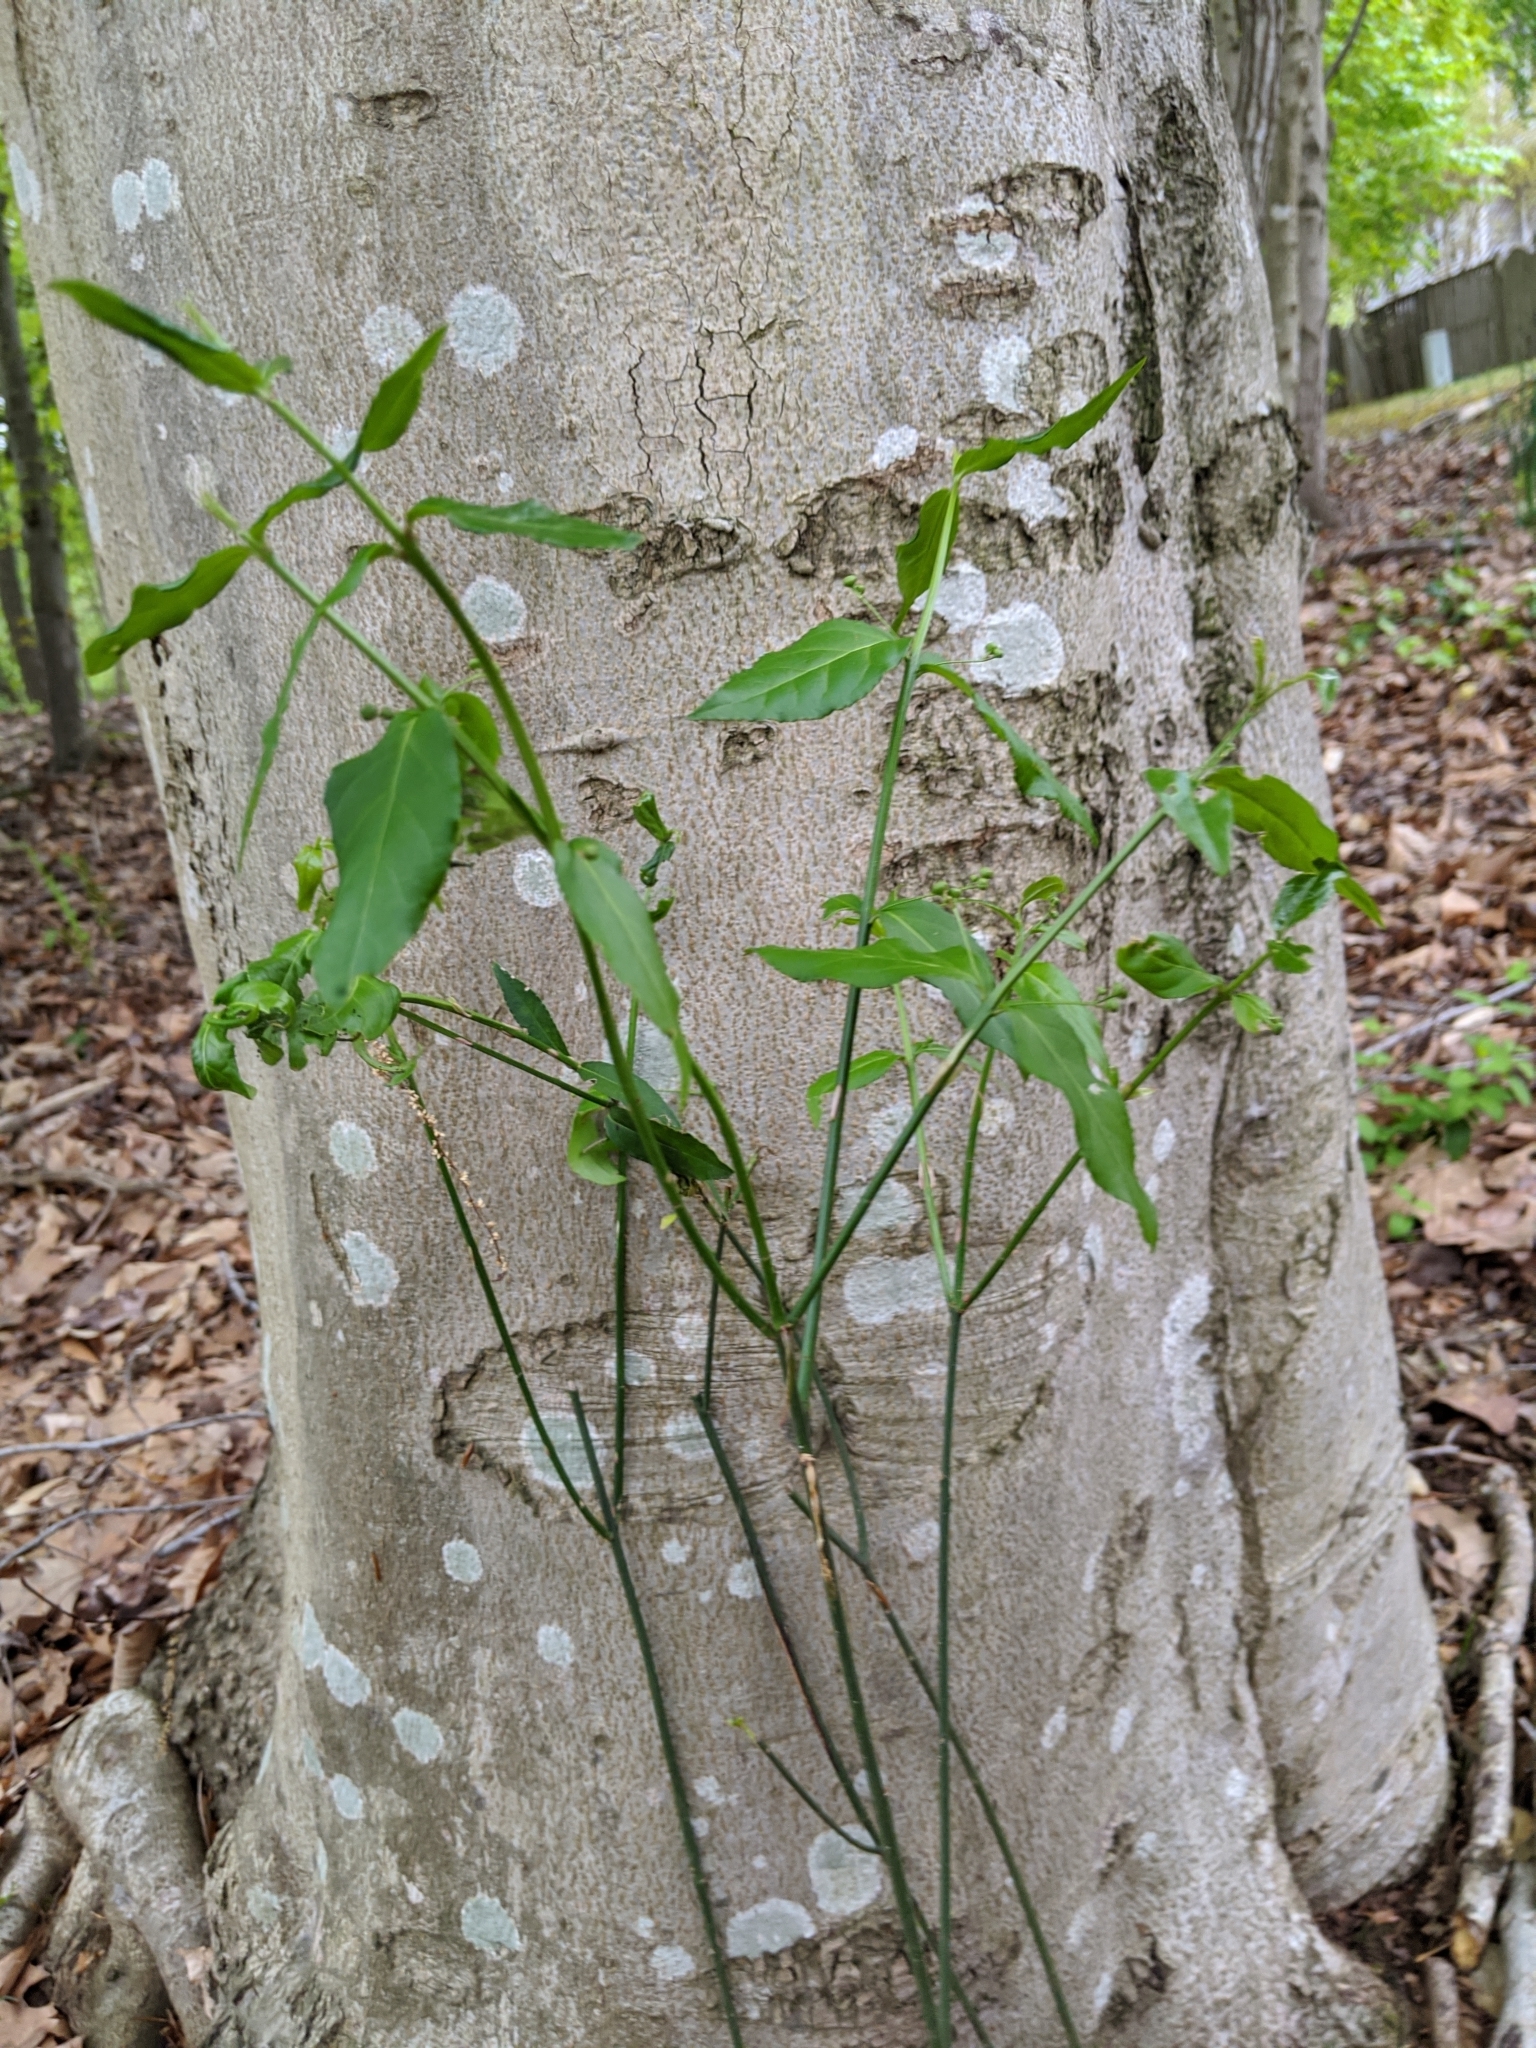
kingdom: Plantae
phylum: Tracheophyta
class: Magnoliopsida
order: Celastrales
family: Celastraceae
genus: Euonymus
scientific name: Euonymus americanus
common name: Bursting-heart
